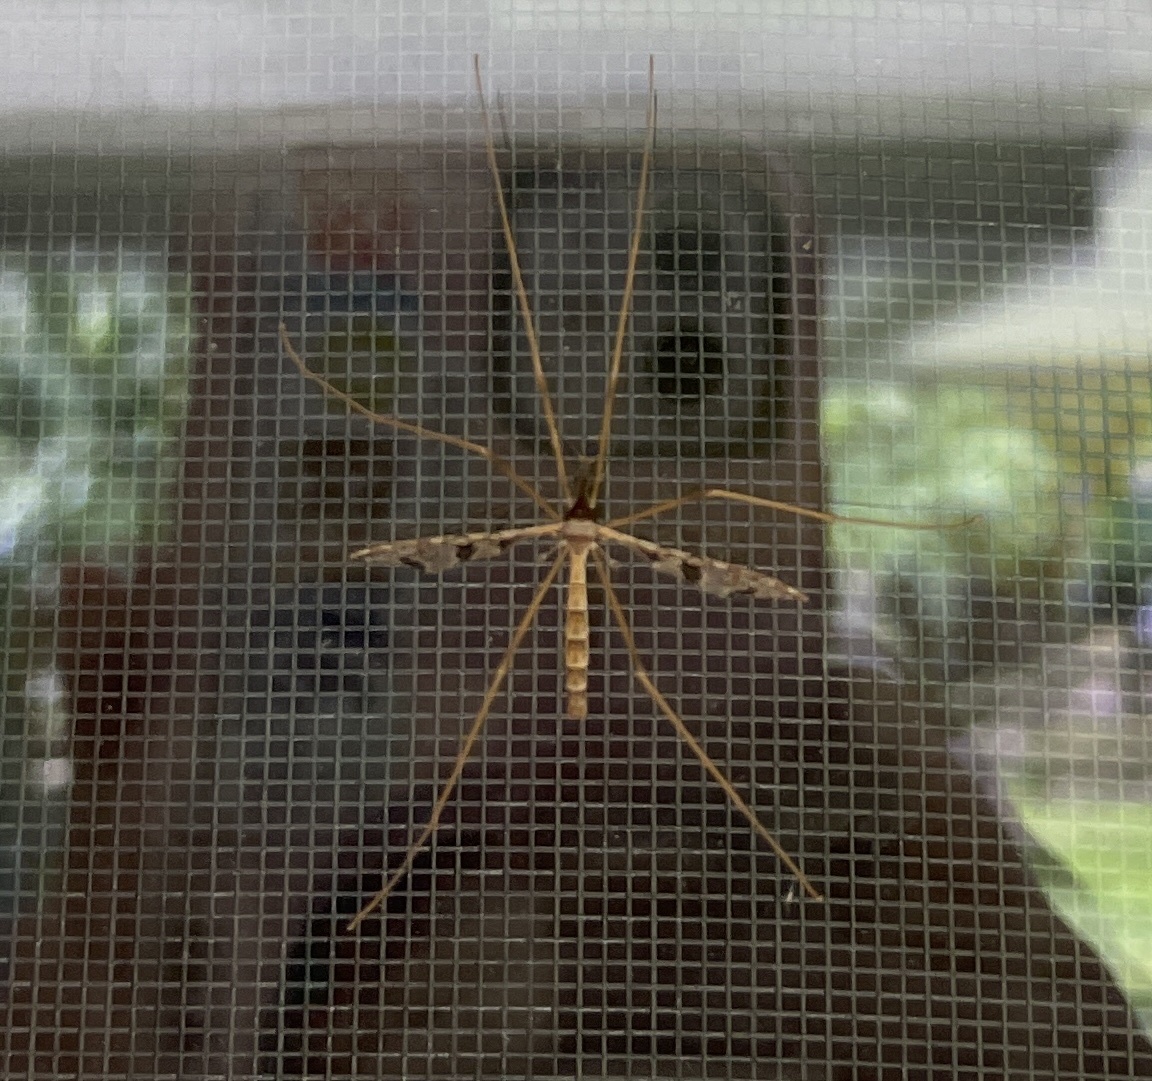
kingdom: Animalia
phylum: Arthropoda
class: Insecta
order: Diptera
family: Limoniidae
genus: Epiphragma
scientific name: Epiphragma solatrix
